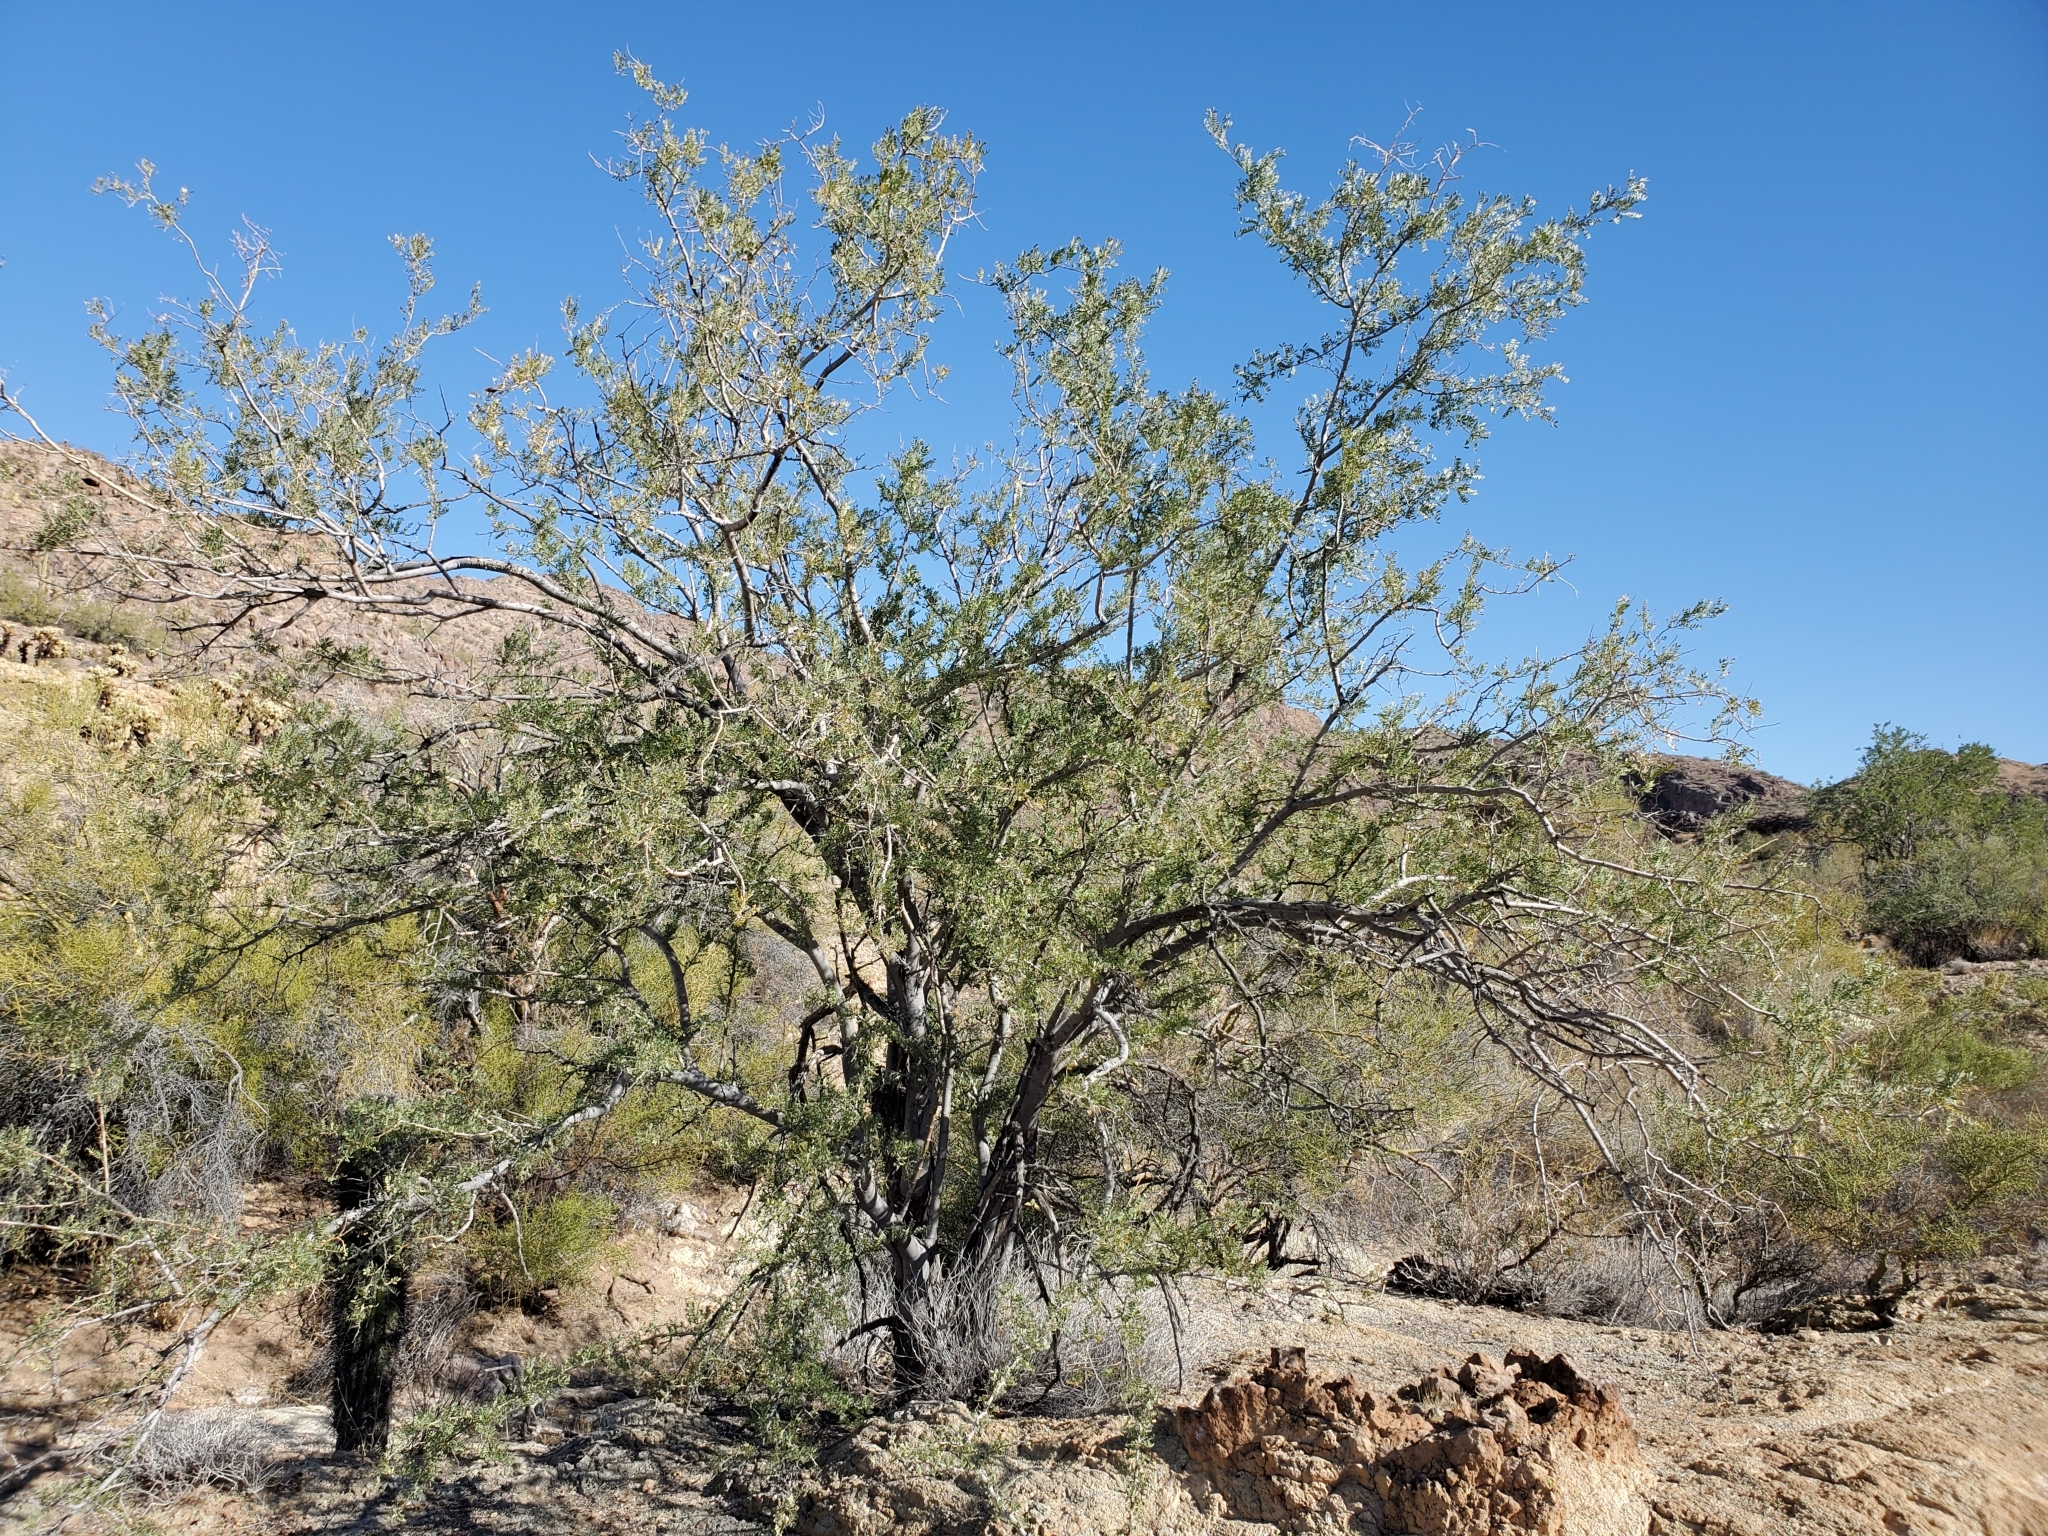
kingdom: Plantae
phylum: Tracheophyta
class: Magnoliopsida
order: Fabales
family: Fabaceae
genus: Olneya
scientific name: Olneya tesota
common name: Desert ironwood
